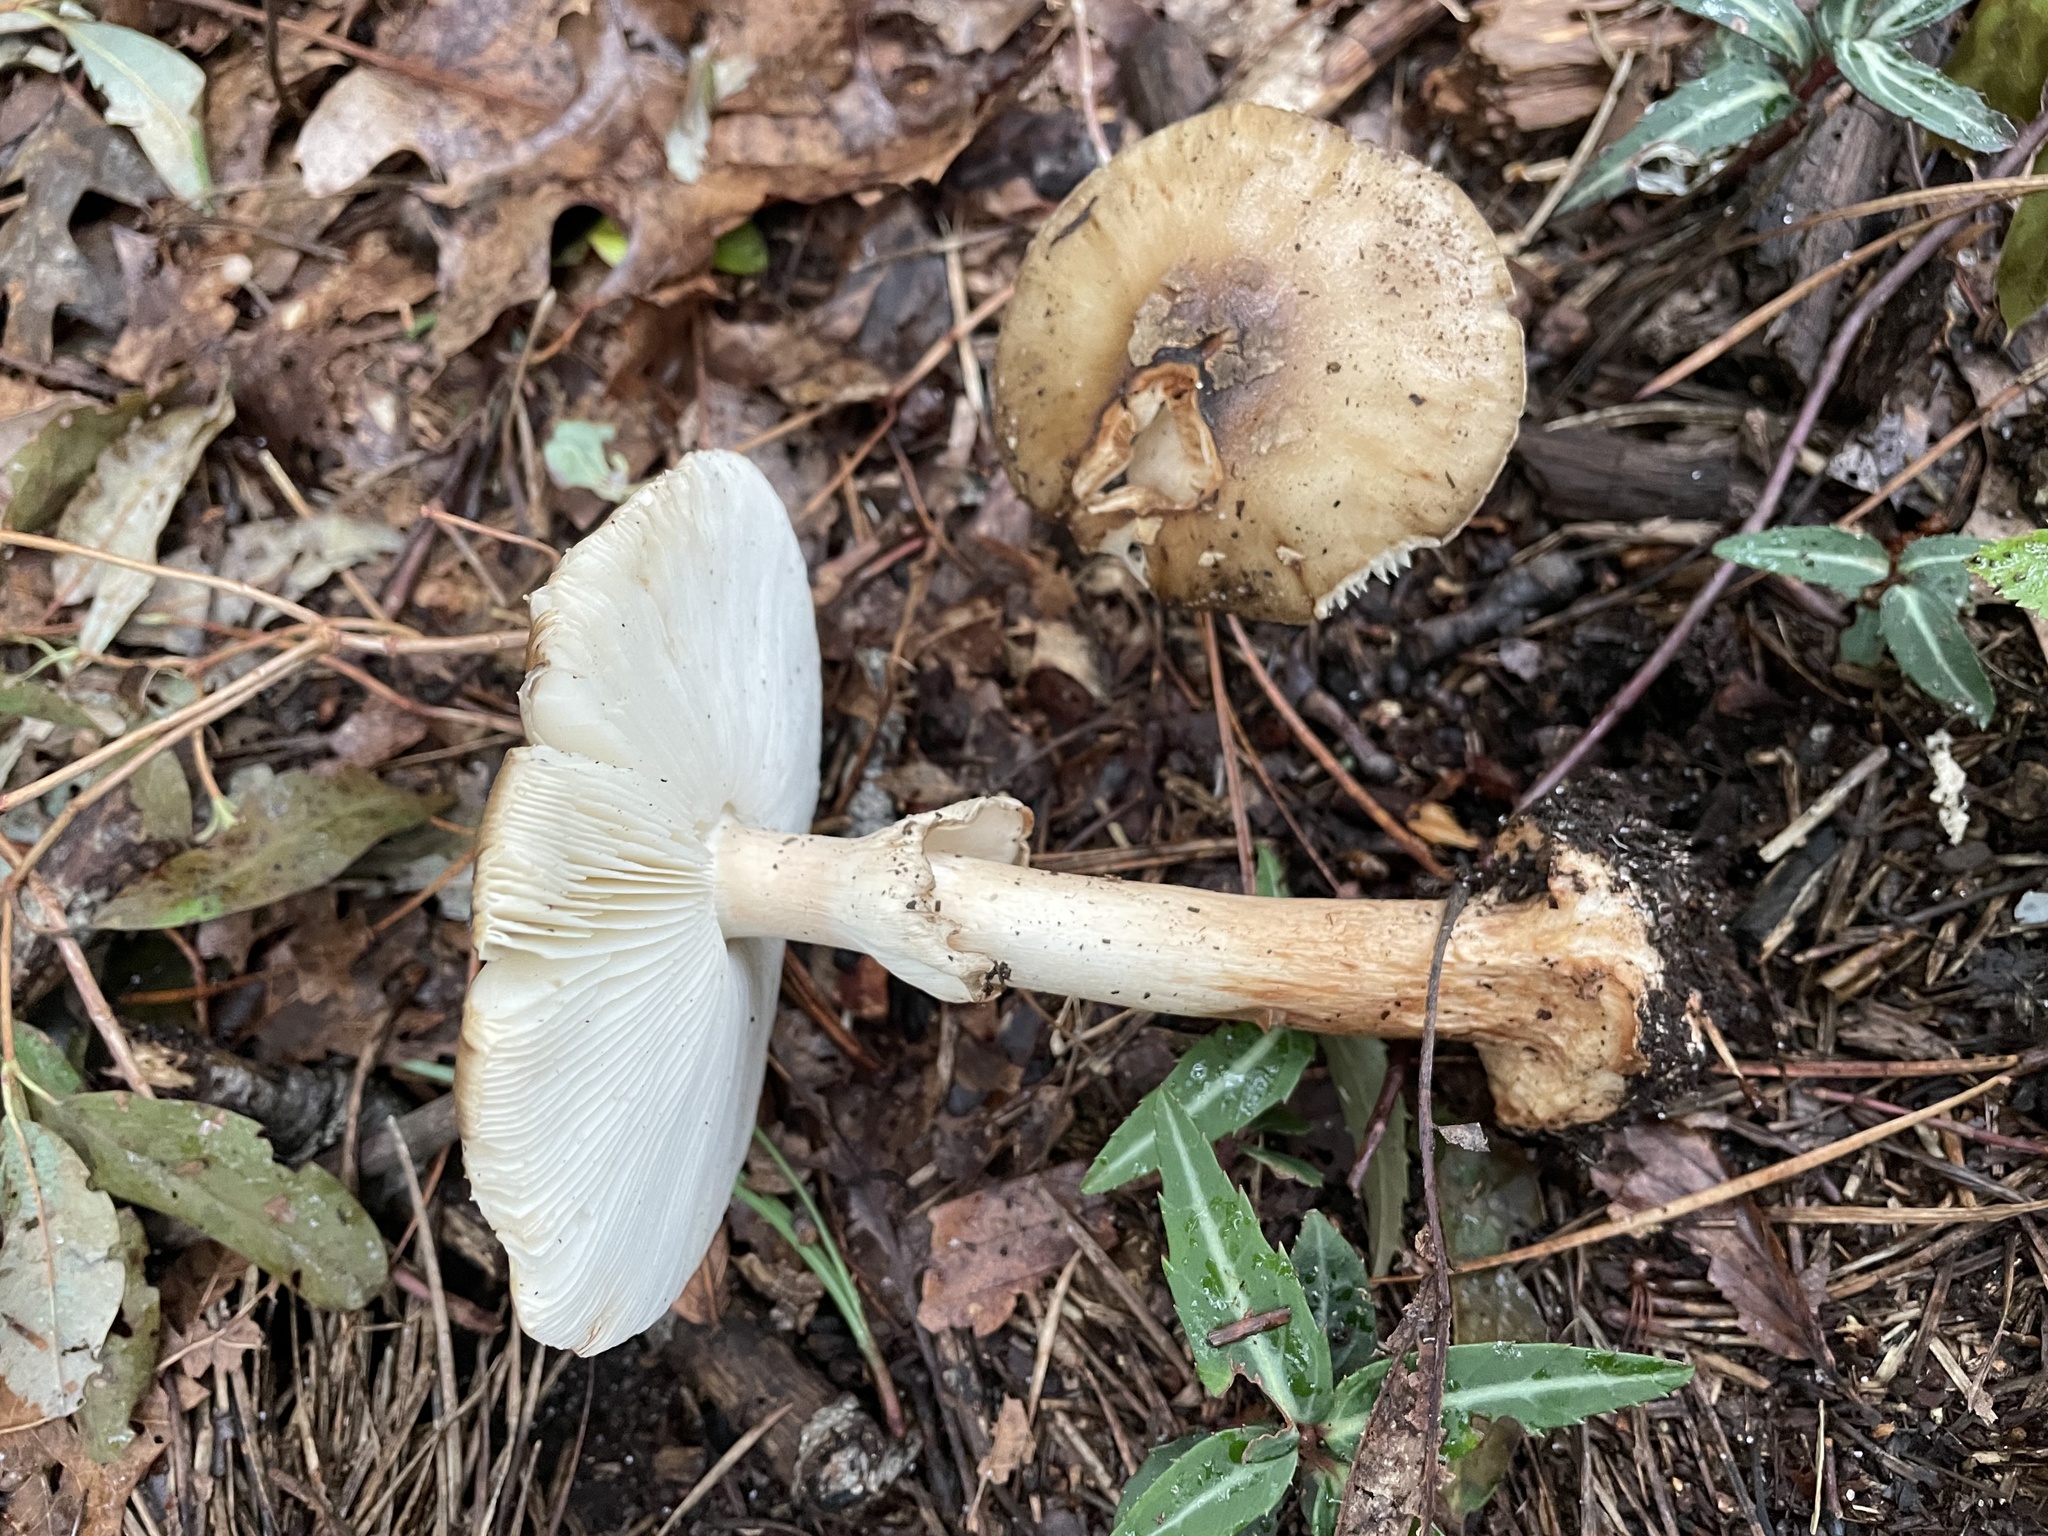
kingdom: Fungi
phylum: Basidiomycota
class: Agaricomycetes
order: Agaricales
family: Amanitaceae
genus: Amanita
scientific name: Amanita brunnescens
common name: Brown american star-footed amanita
